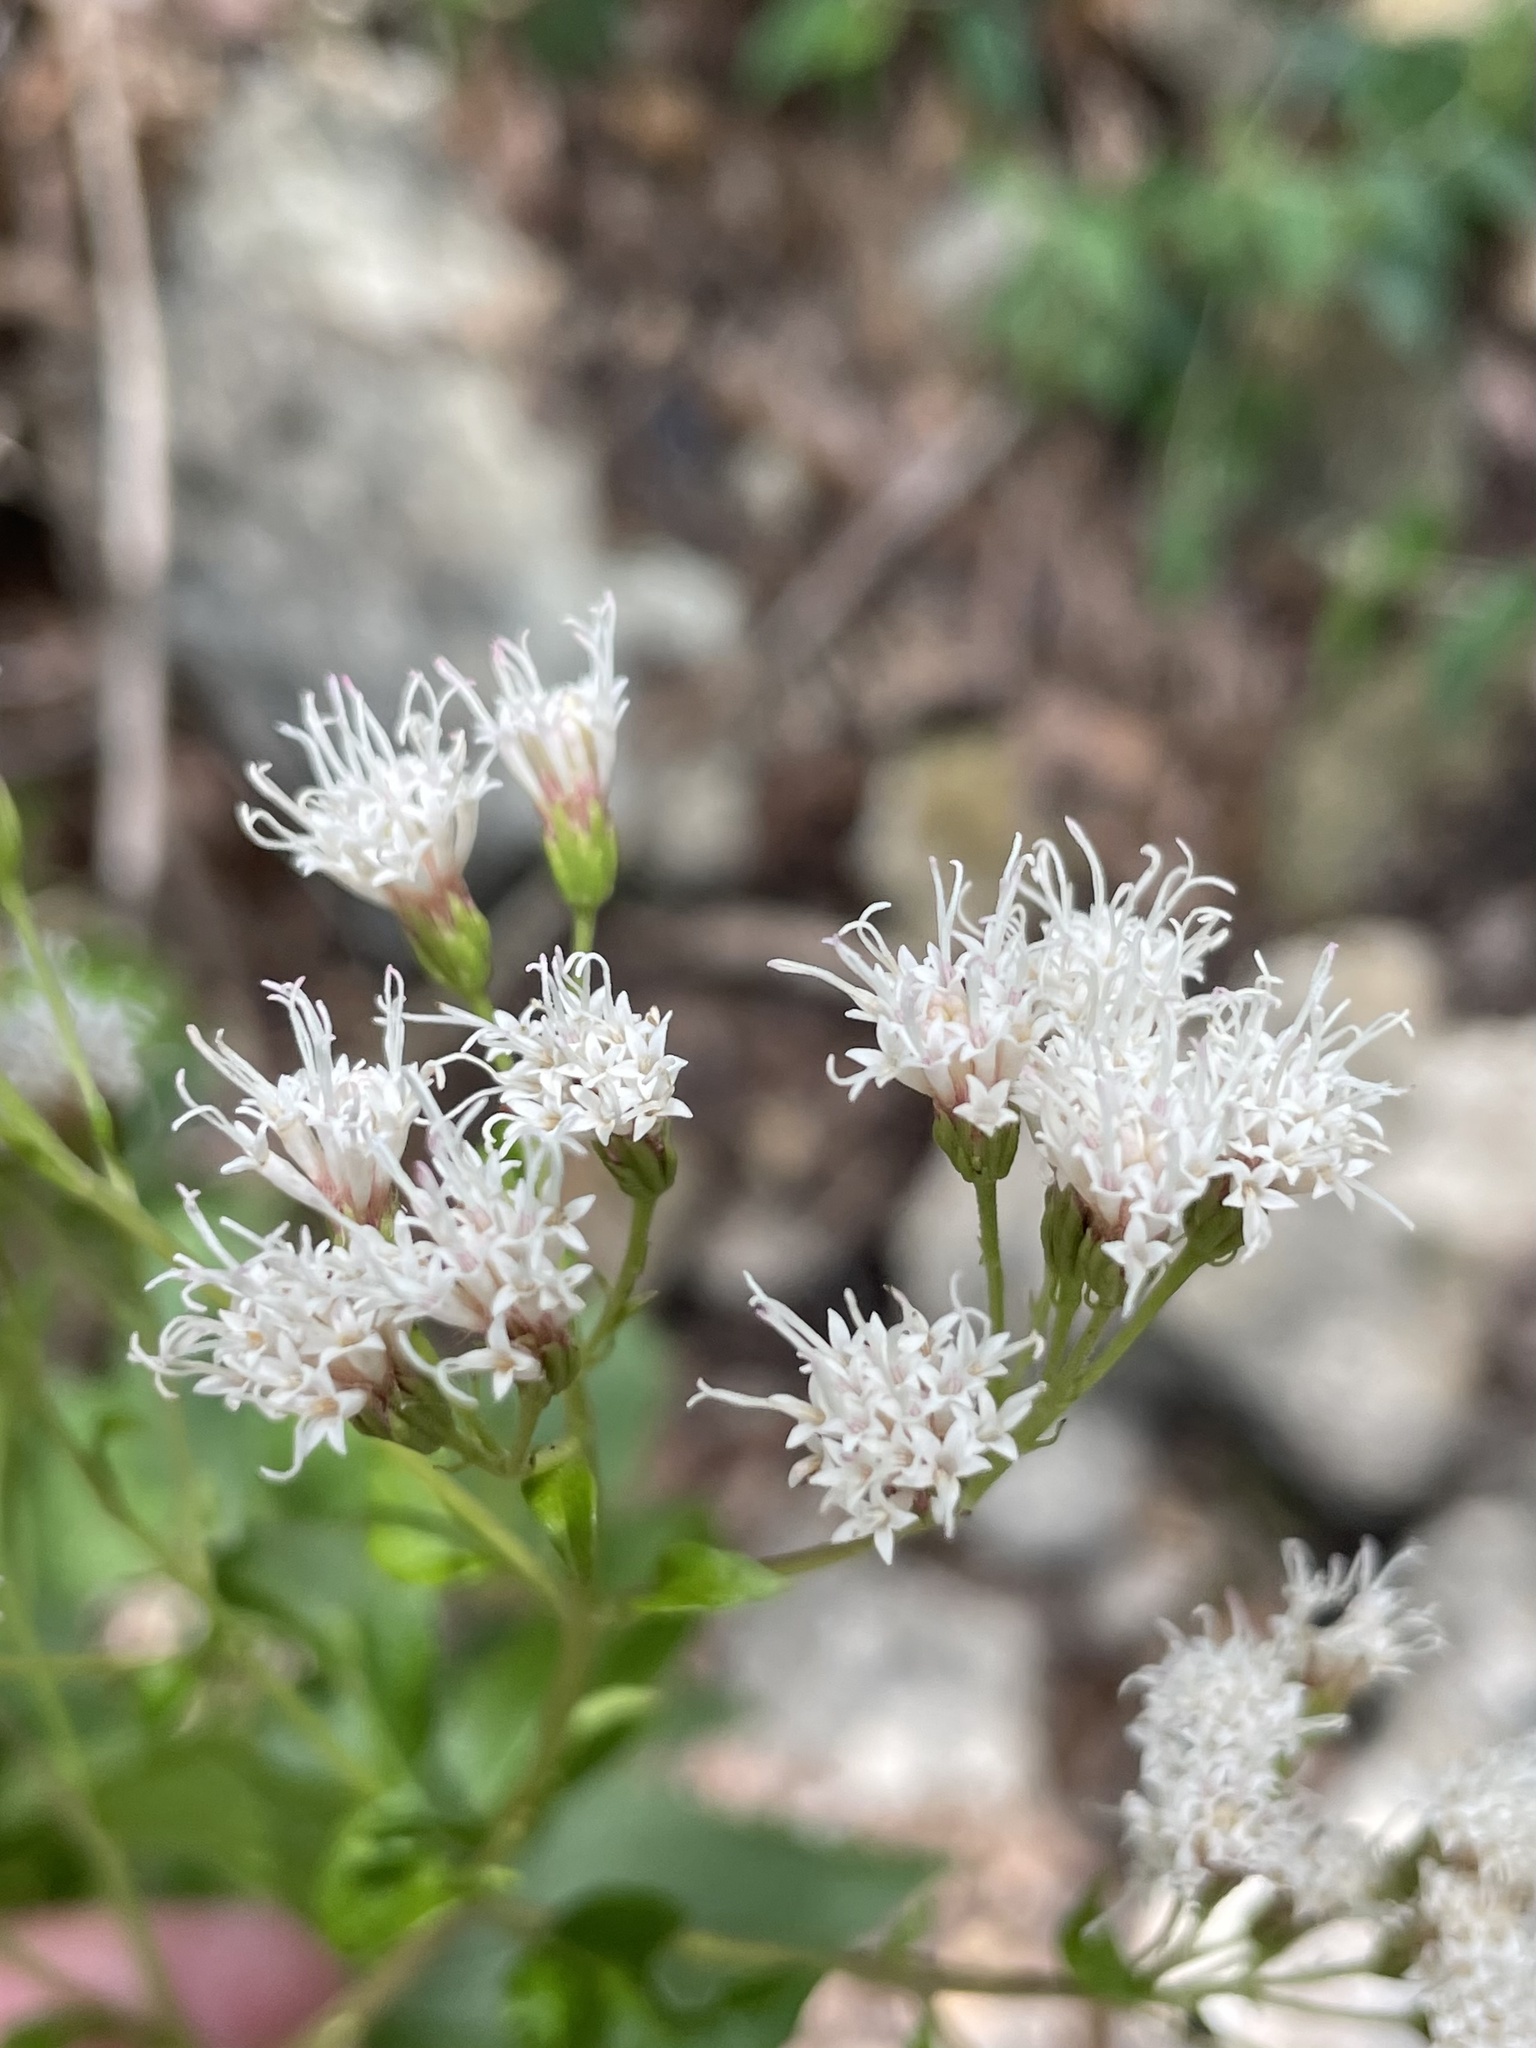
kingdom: Plantae
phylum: Tracheophyta
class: Magnoliopsida
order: Asterales
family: Asteraceae
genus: Ageratina
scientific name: Ageratina havanensis
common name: Havana snakeroot
